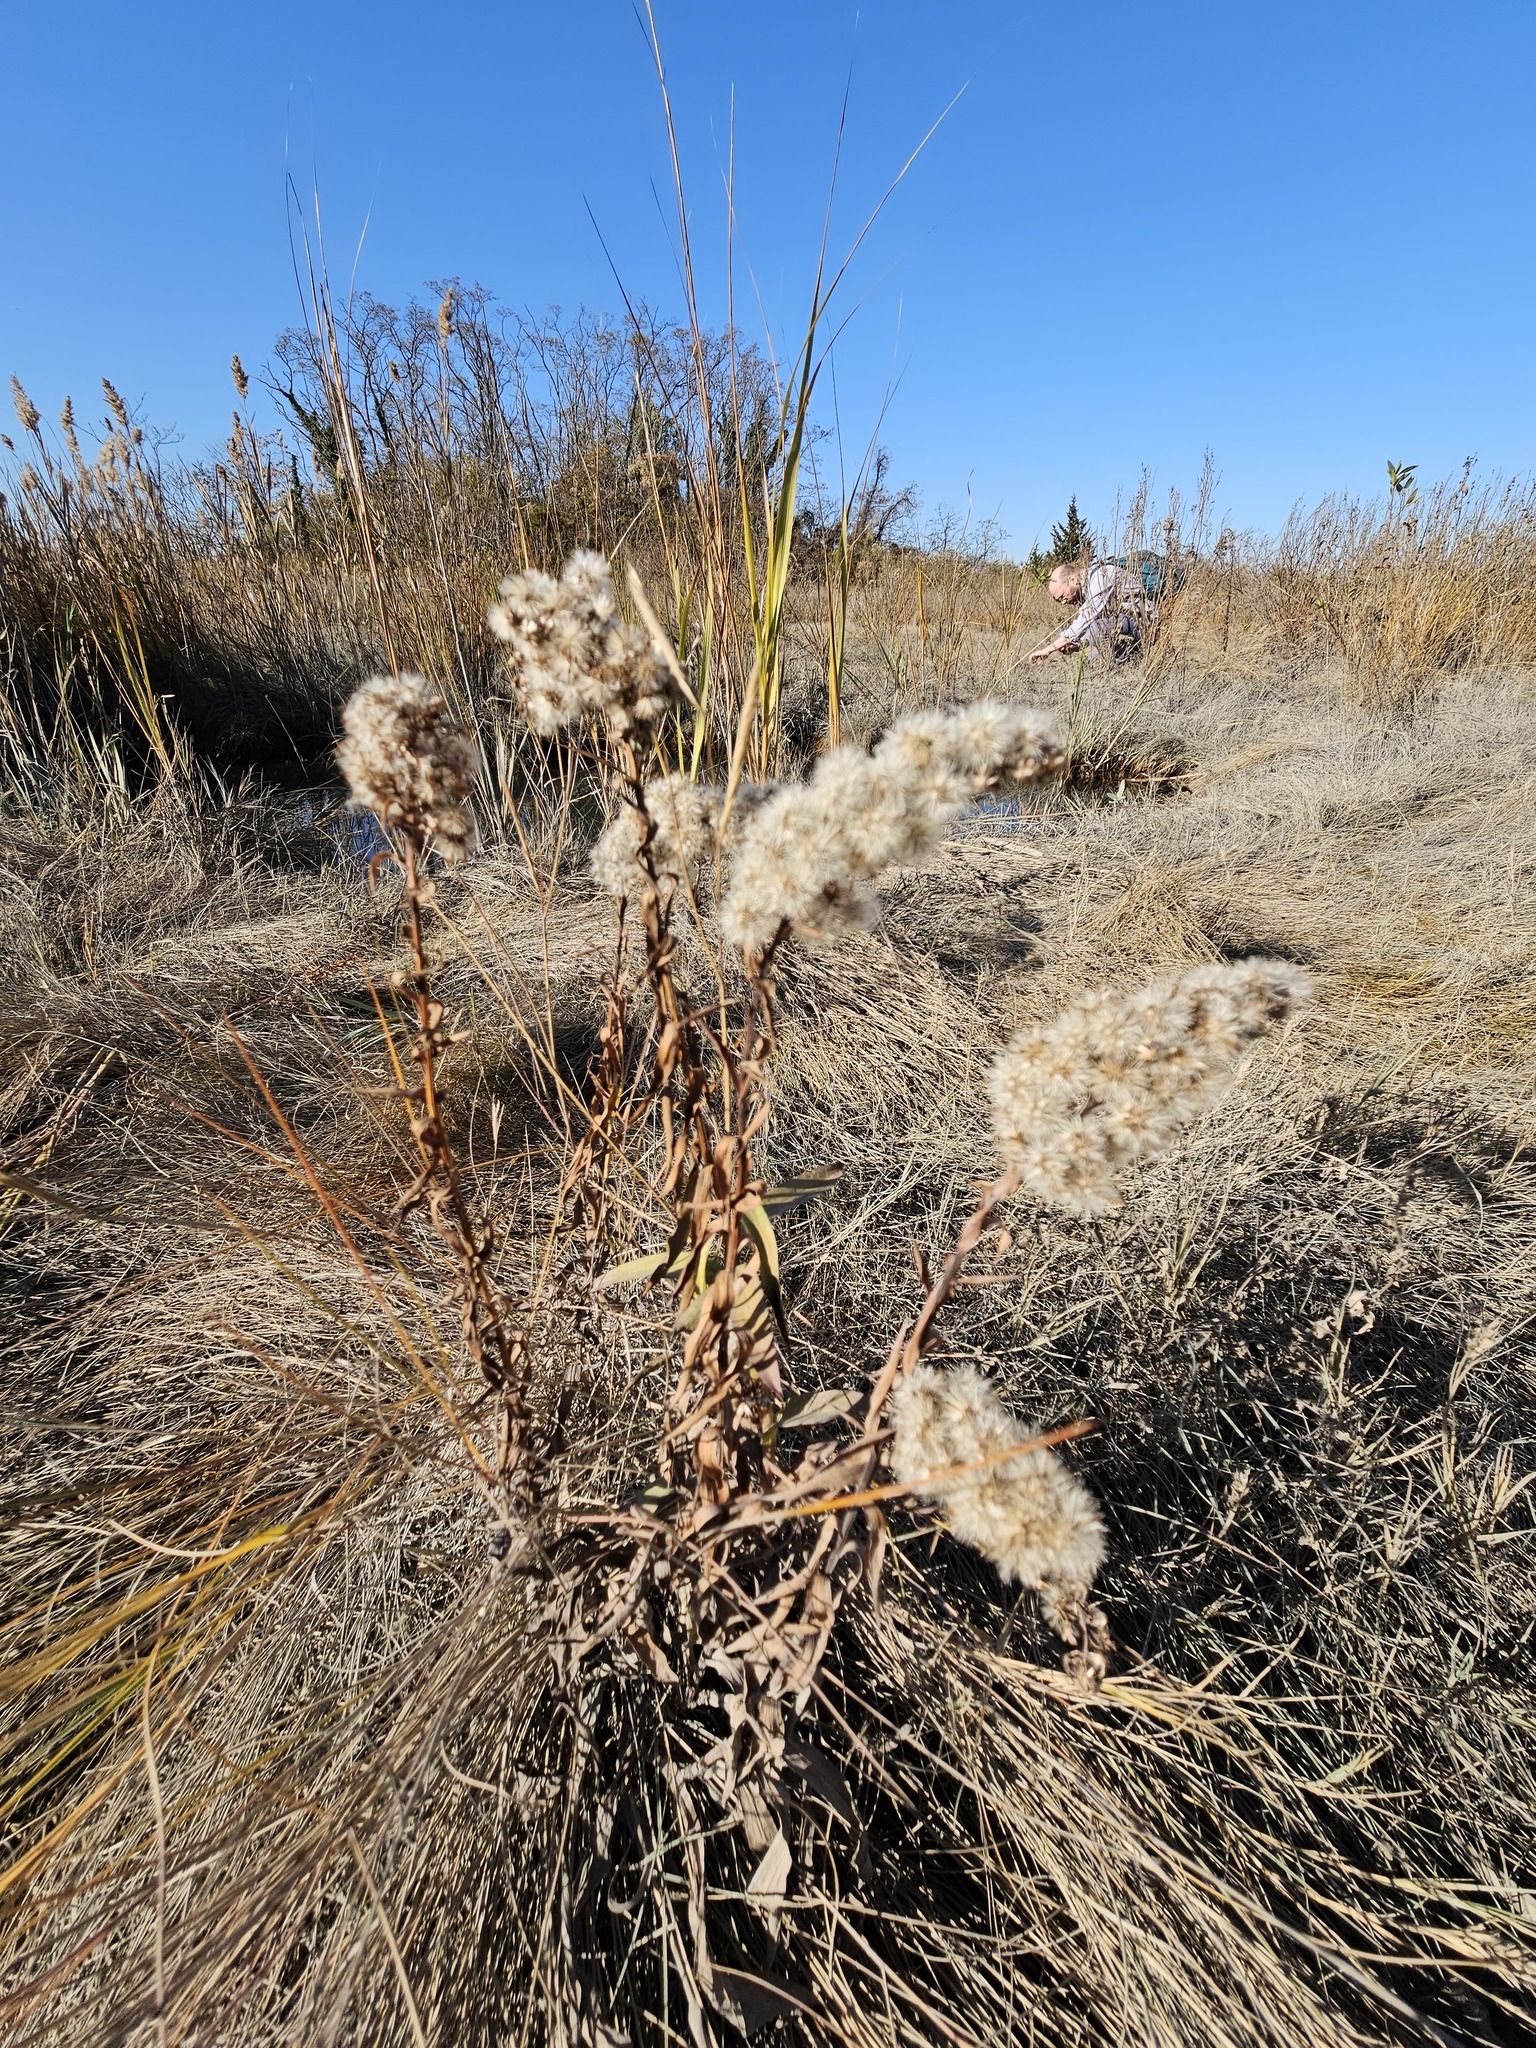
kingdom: Plantae
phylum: Tracheophyta
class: Magnoliopsida
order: Asterales
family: Asteraceae
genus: Solidago
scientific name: Solidago sempervirens
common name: Salt-marsh goldenrod
